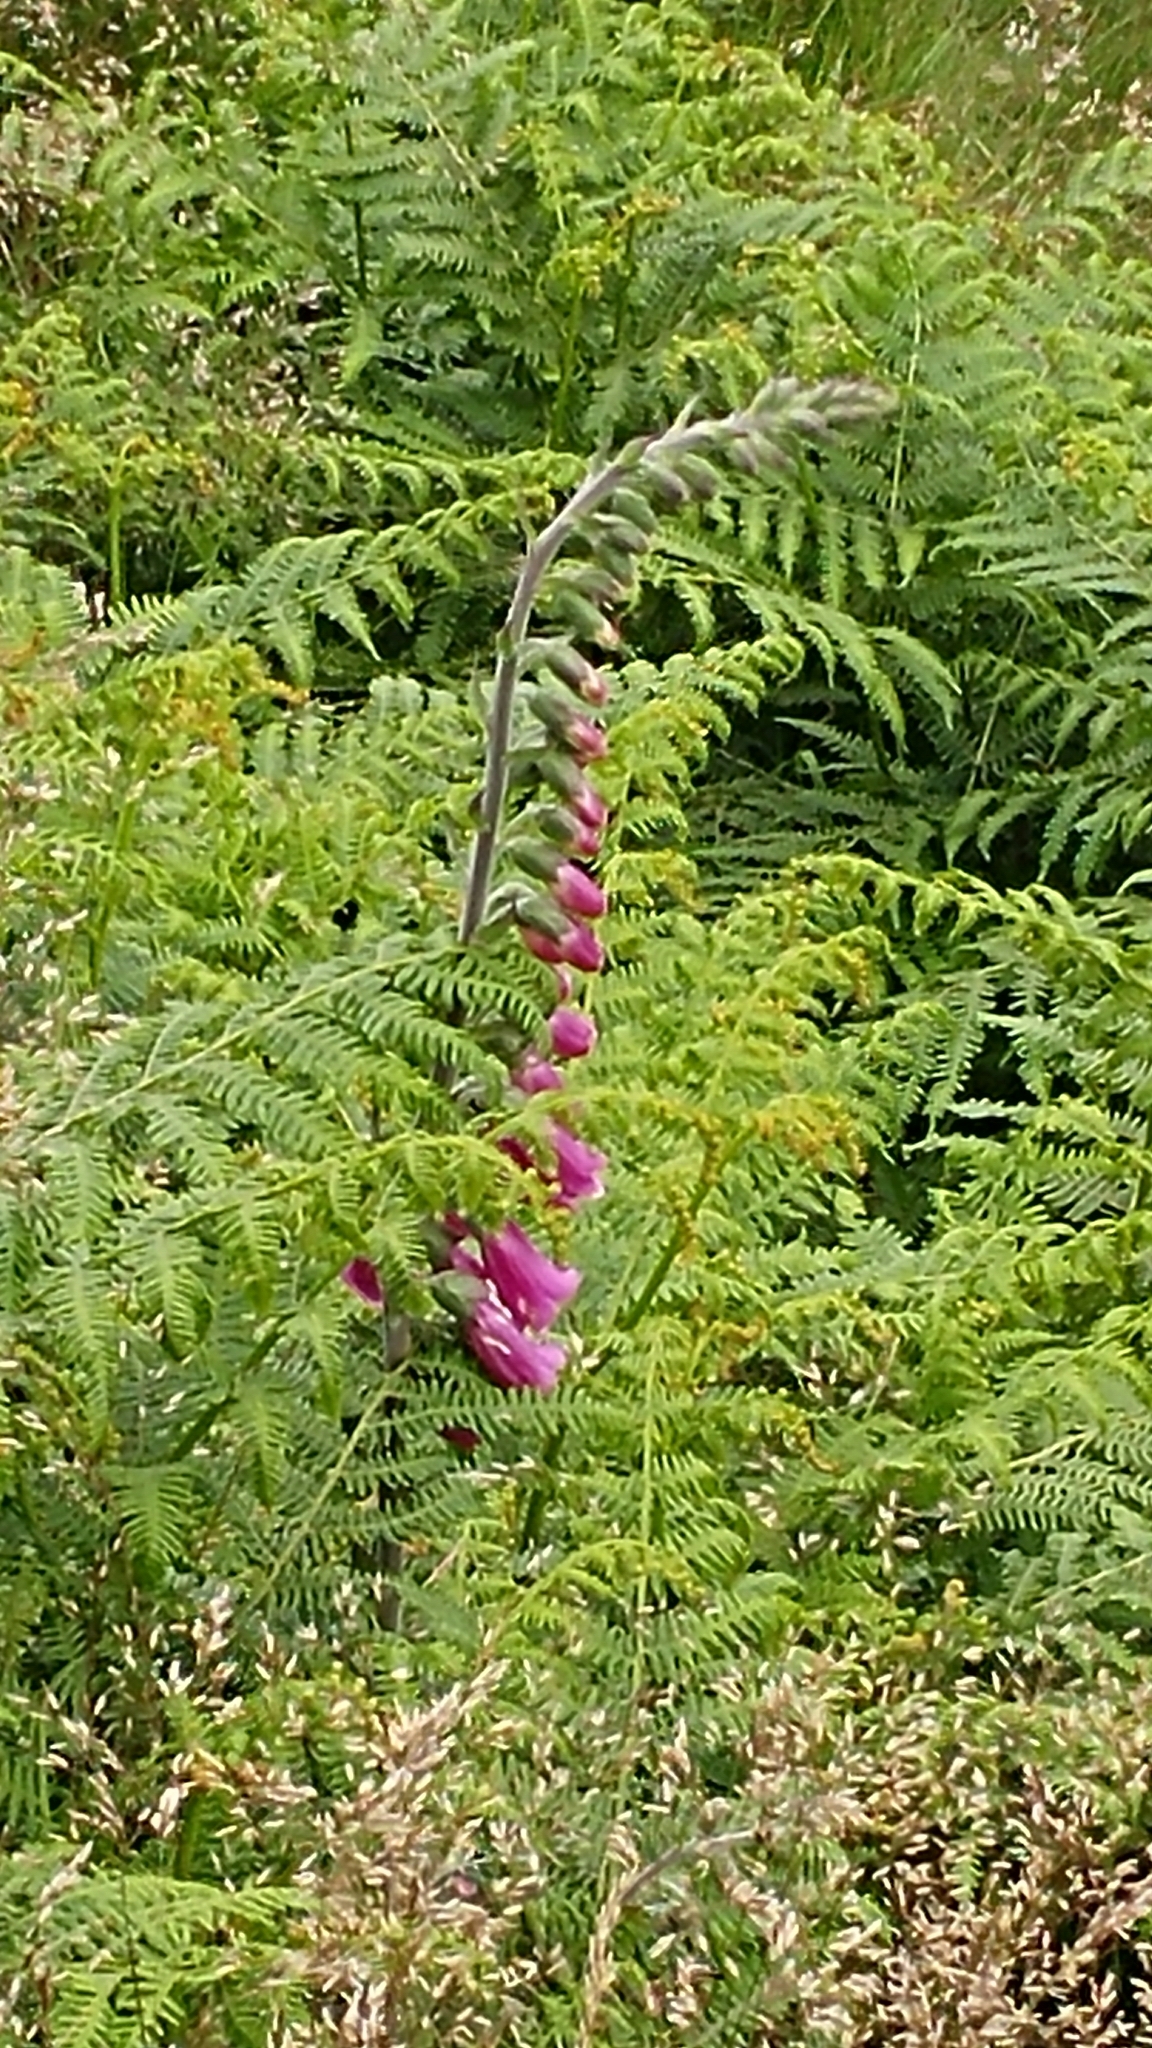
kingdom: Plantae
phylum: Tracheophyta
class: Magnoliopsida
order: Lamiales
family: Plantaginaceae
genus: Digitalis
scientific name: Digitalis purpurea
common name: Foxglove
